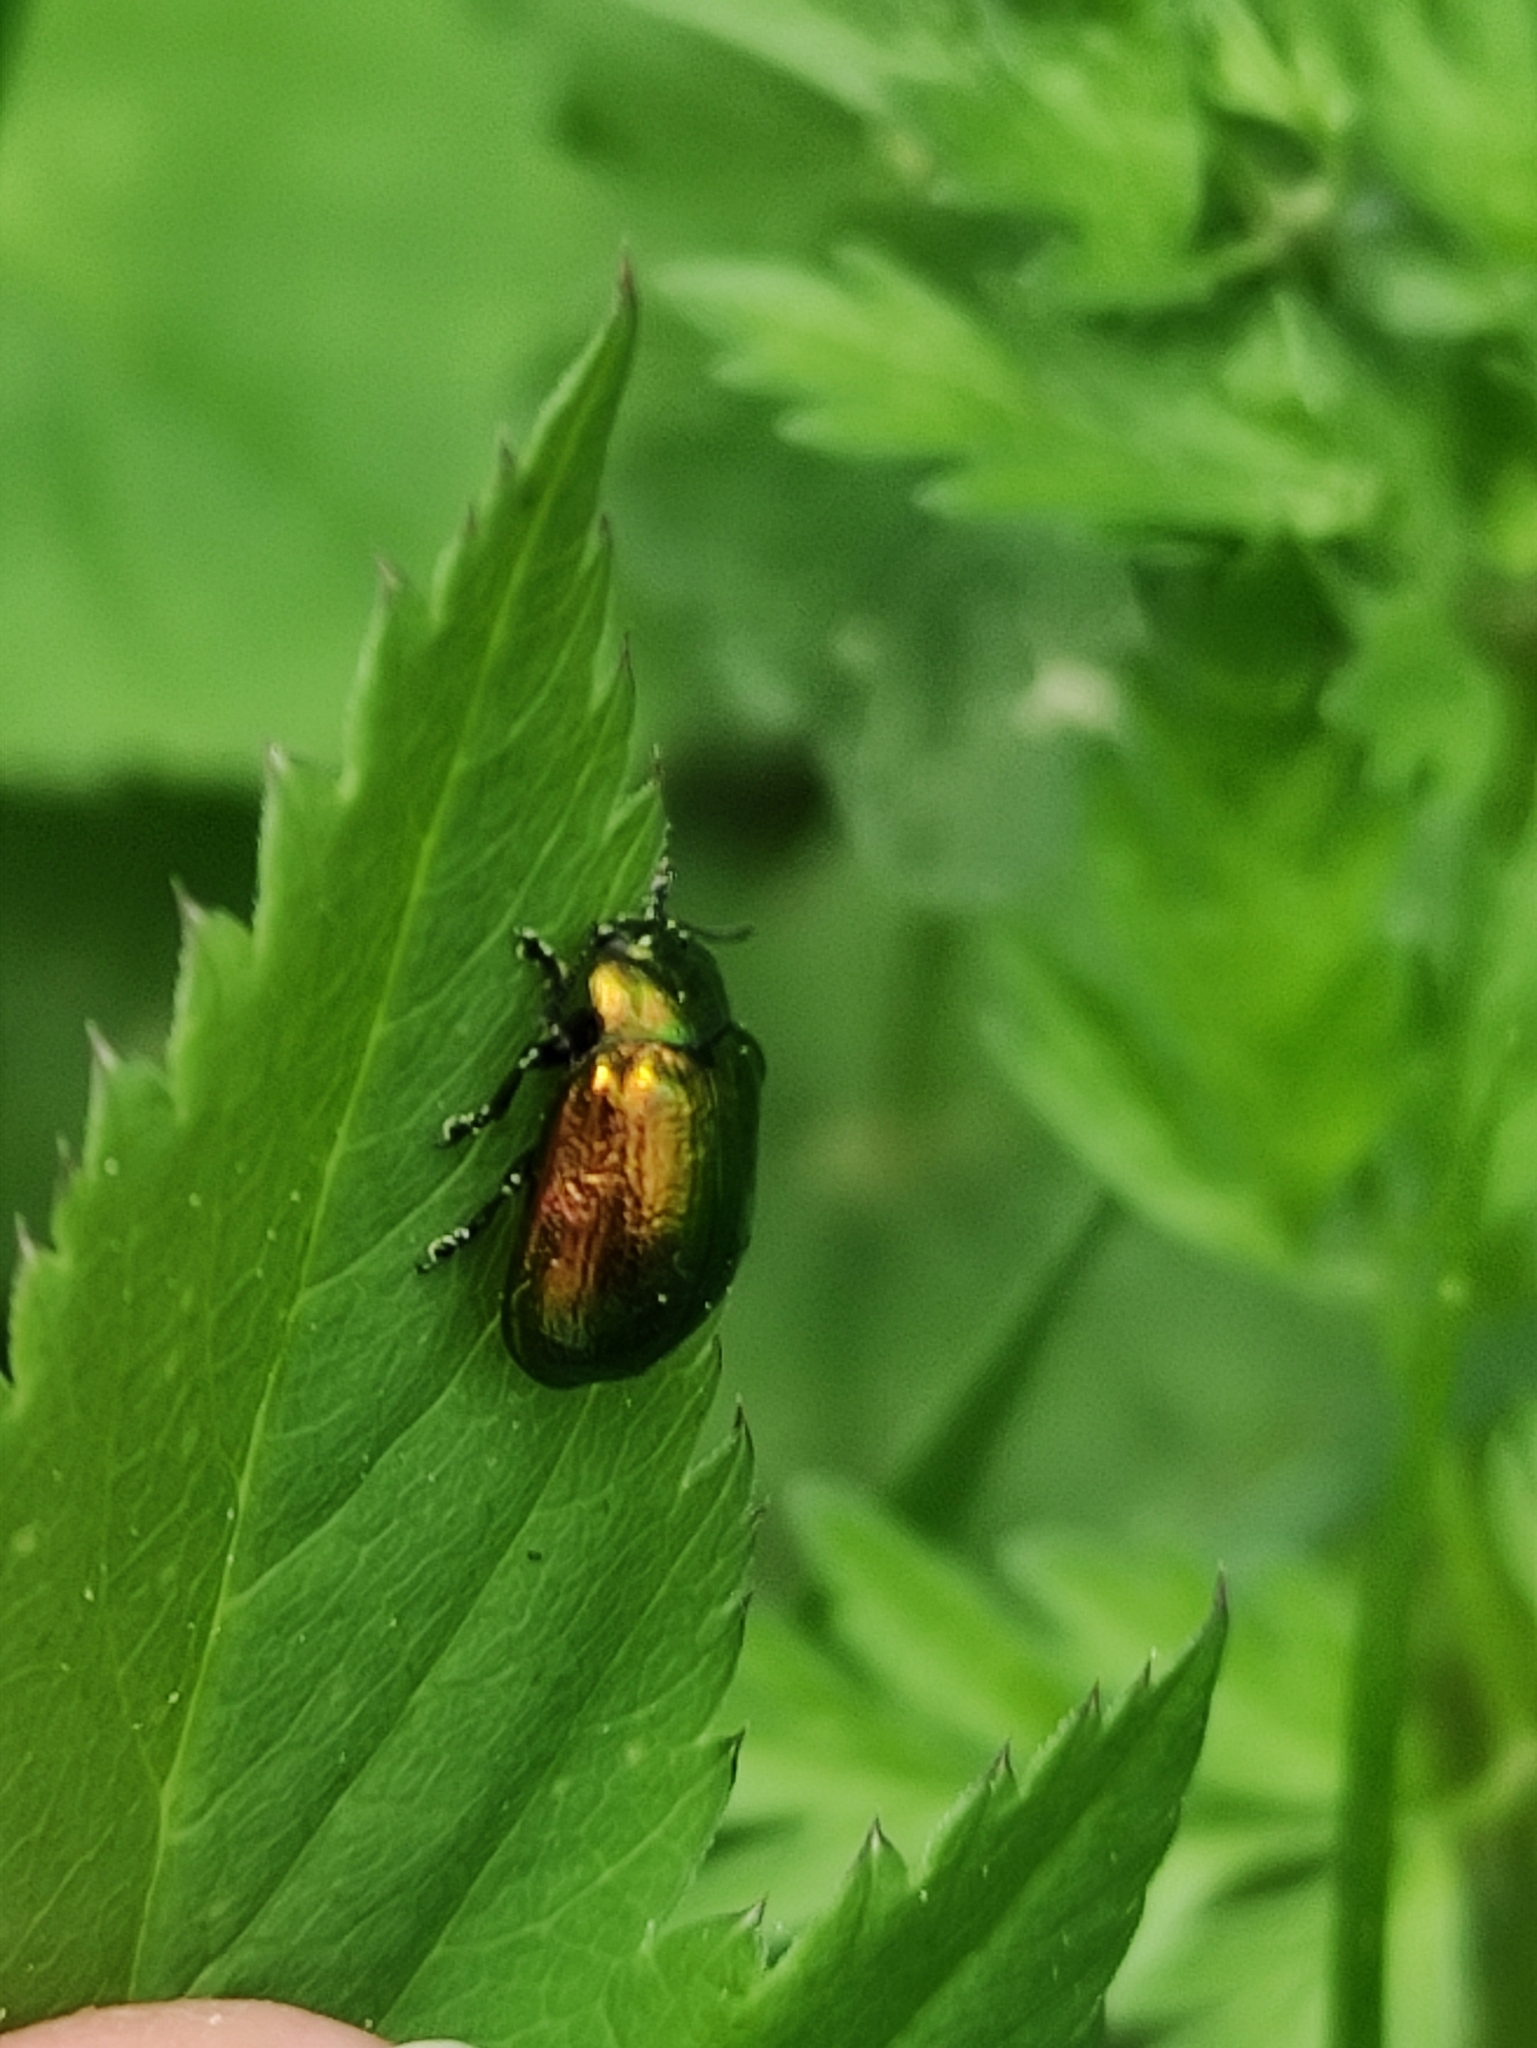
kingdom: Animalia
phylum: Arthropoda
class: Insecta
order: Coleoptera
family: Chrysomelidae
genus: Plagiosterna
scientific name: Plagiosterna aenea
